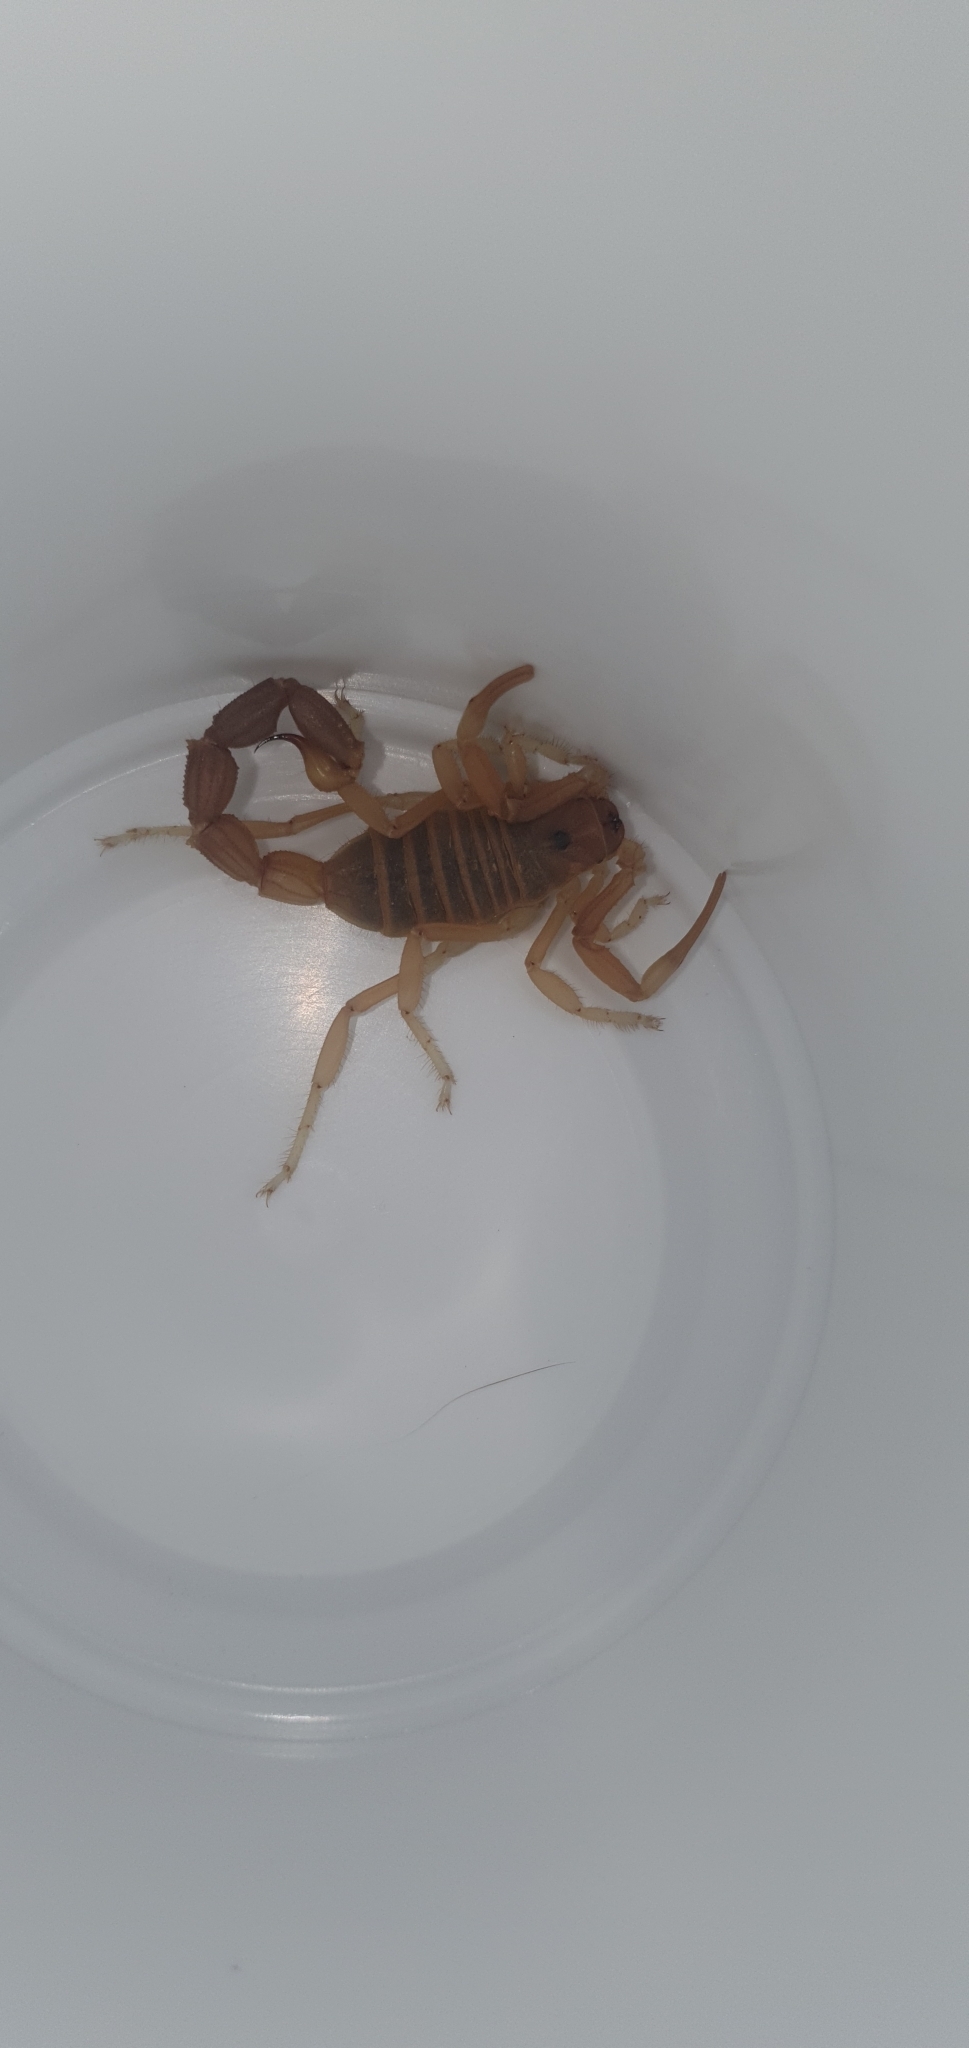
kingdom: Animalia
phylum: Arthropoda
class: Arachnida
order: Scorpiones
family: Buthidae
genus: Parabuthus
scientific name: Parabuthus granulatus
